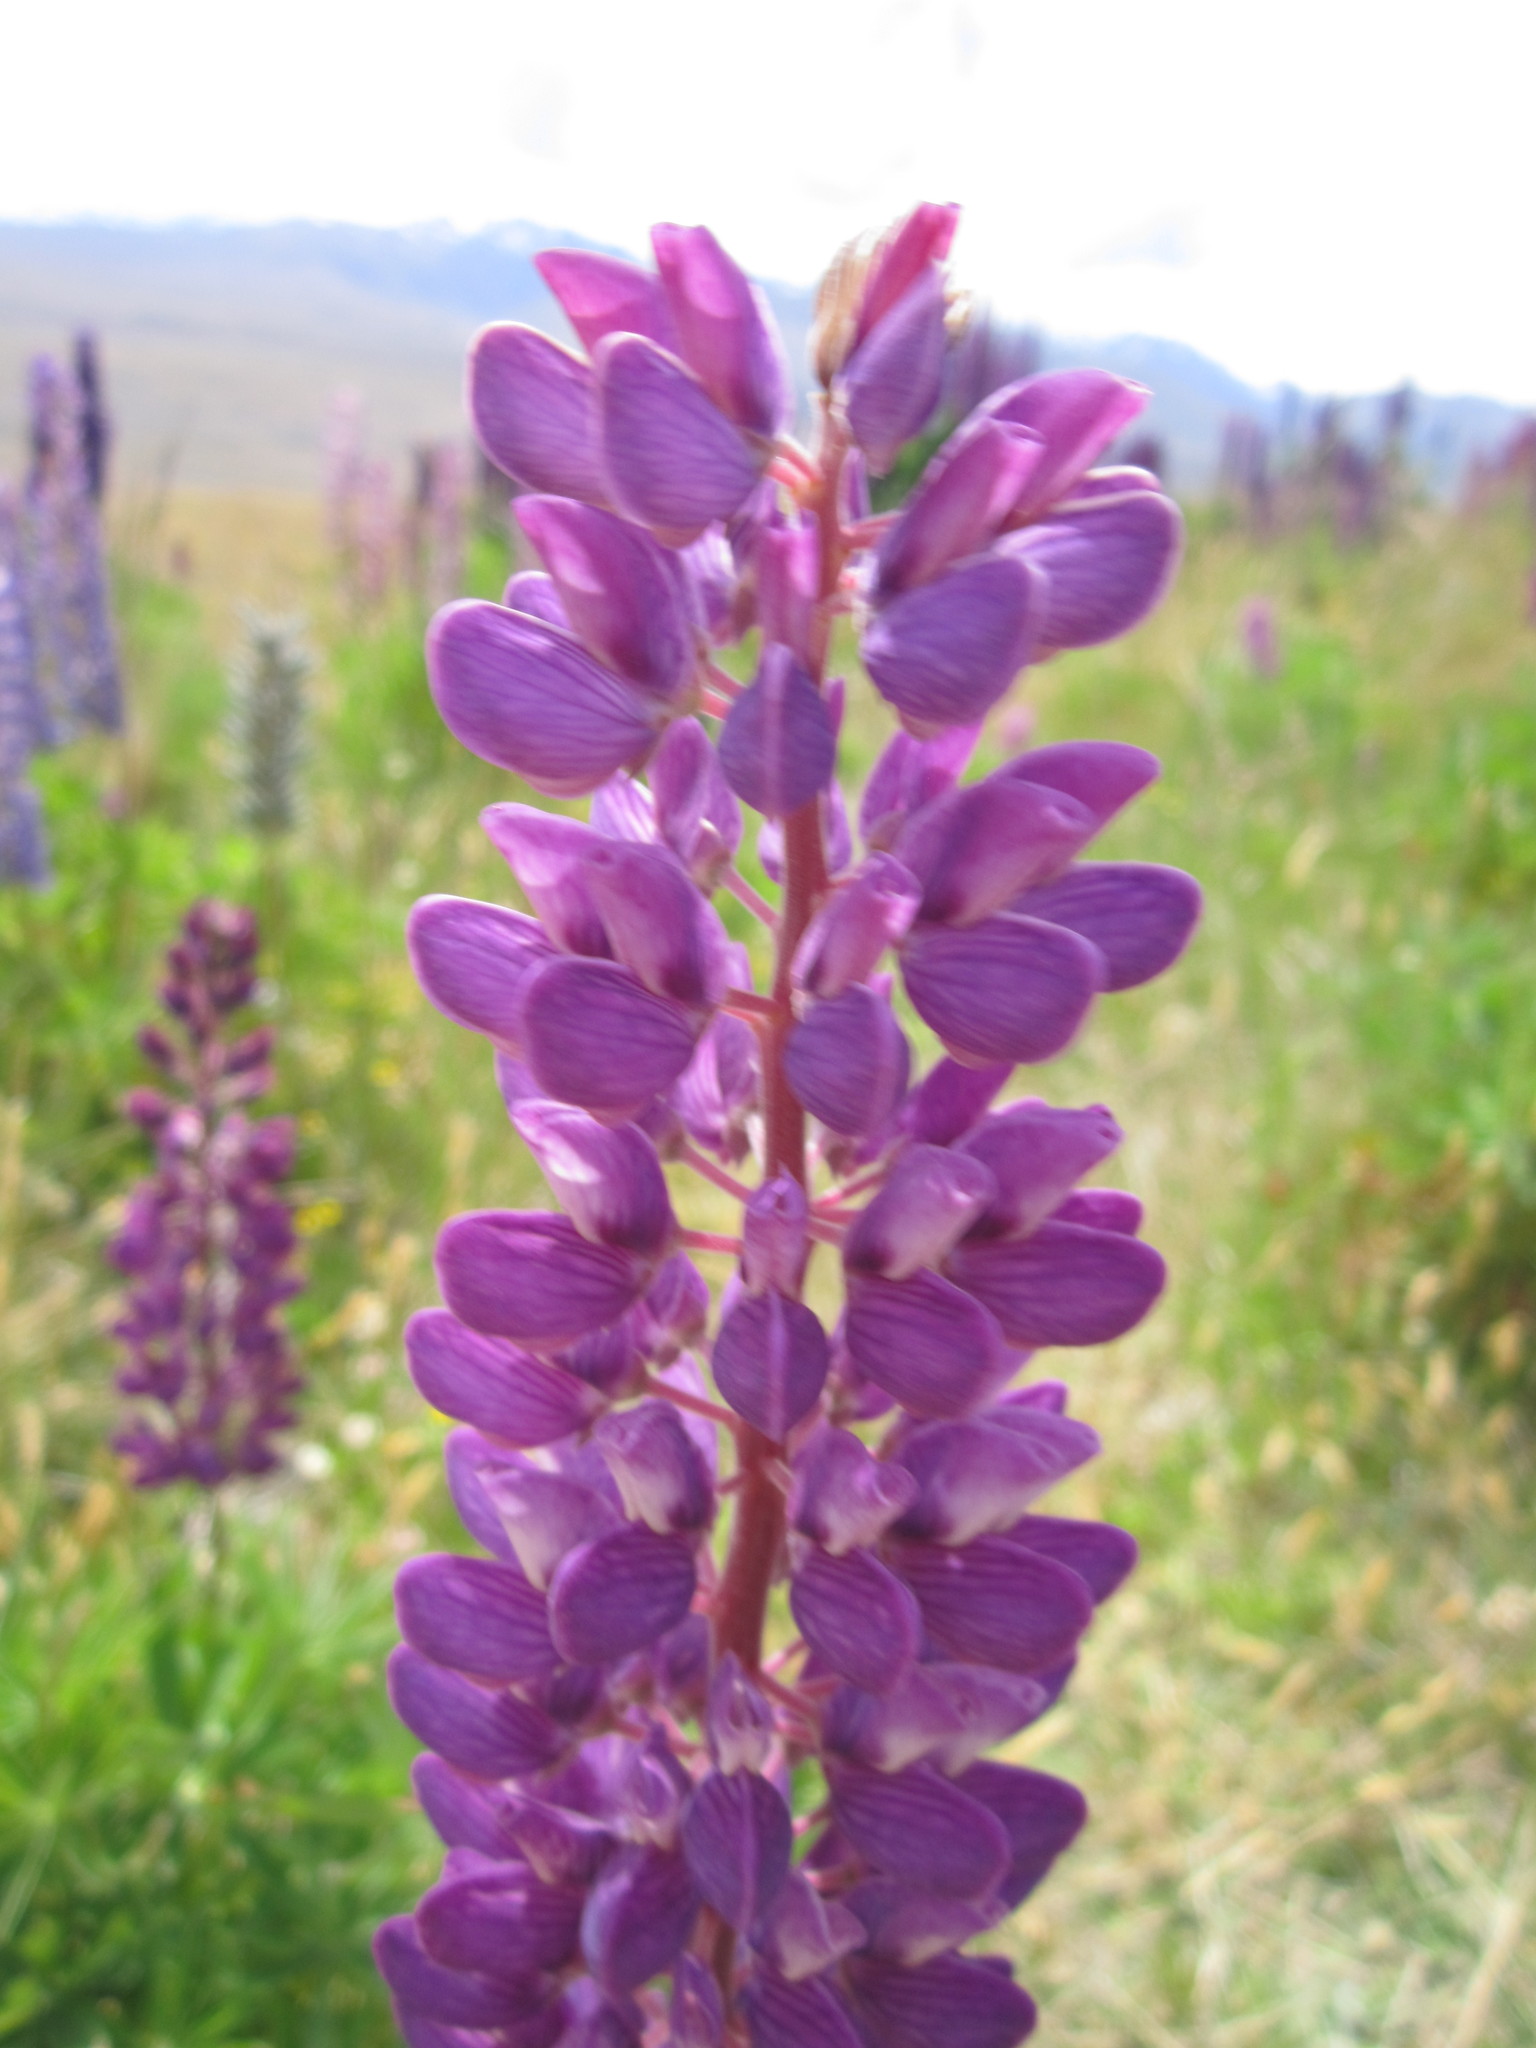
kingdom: Plantae
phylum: Tracheophyta
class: Magnoliopsida
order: Fabales
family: Fabaceae
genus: Lupinus
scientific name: Lupinus polyphyllus
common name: Garden lupin
